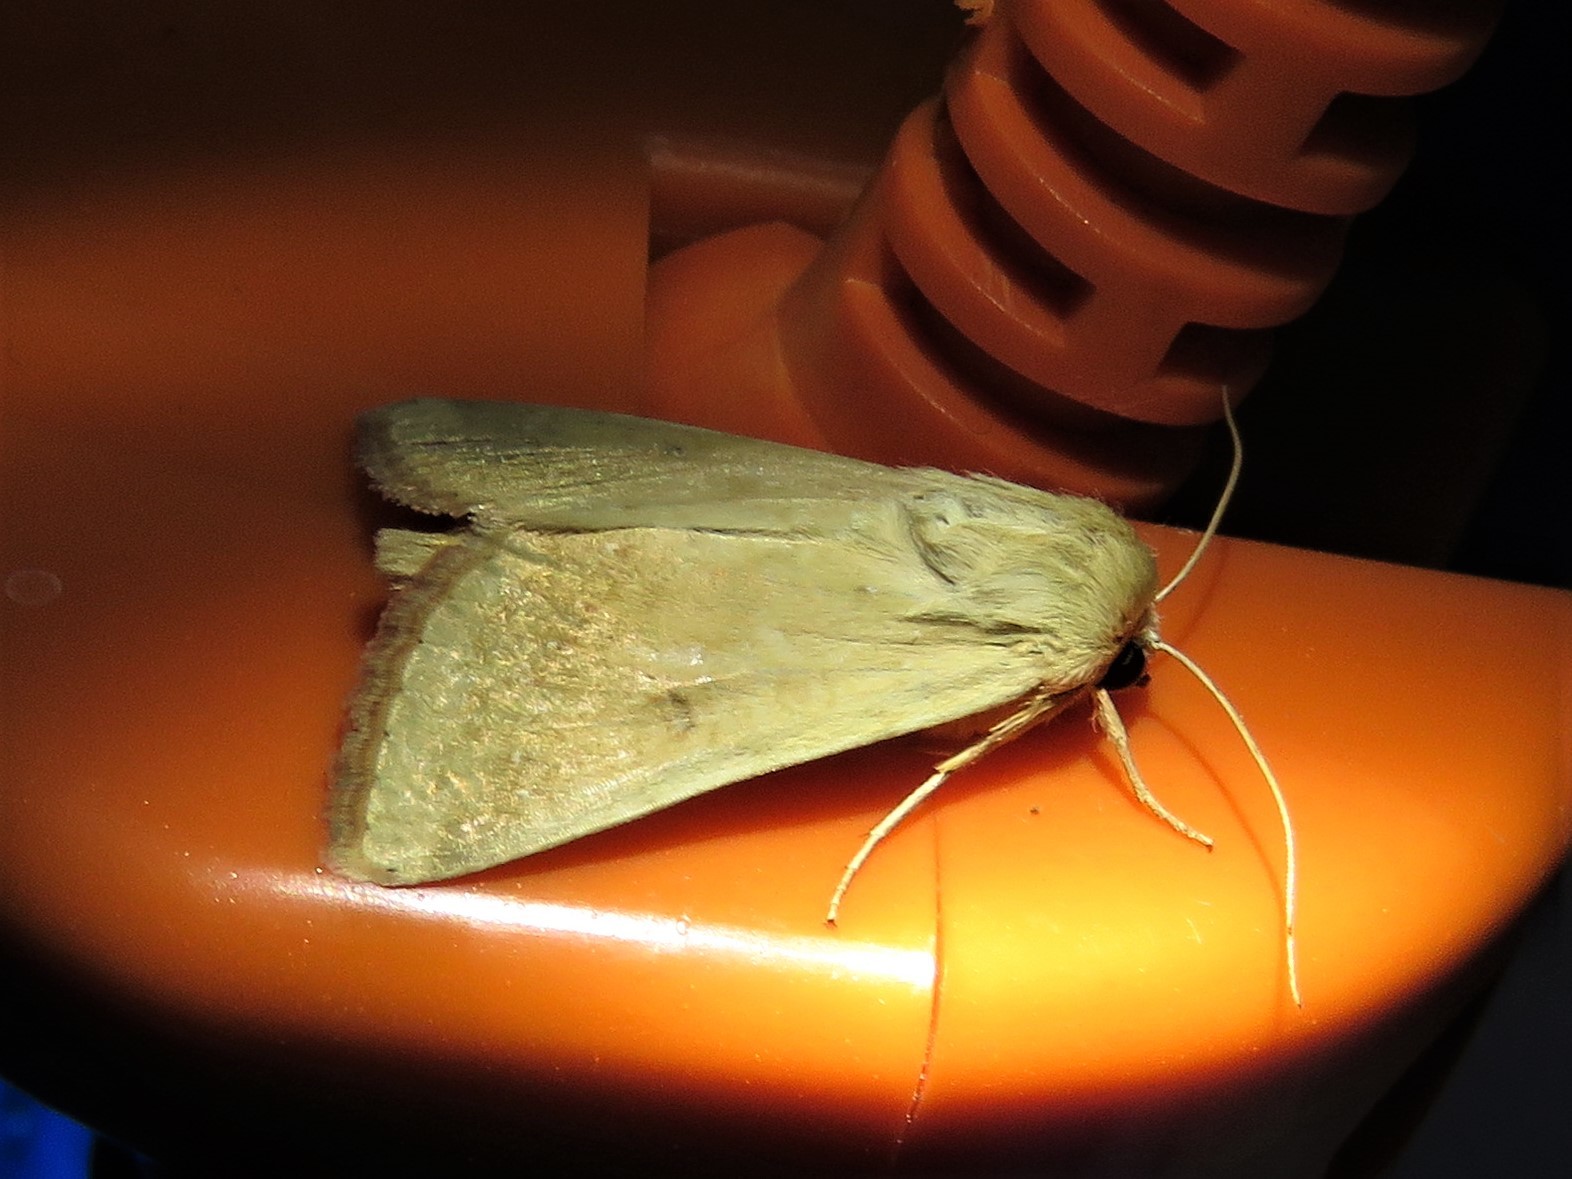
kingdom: Animalia
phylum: Arthropoda
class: Insecta
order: Lepidoptera
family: Noctuidae
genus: Helicoverpa
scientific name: Helicoverpa zea
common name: Bollworm
